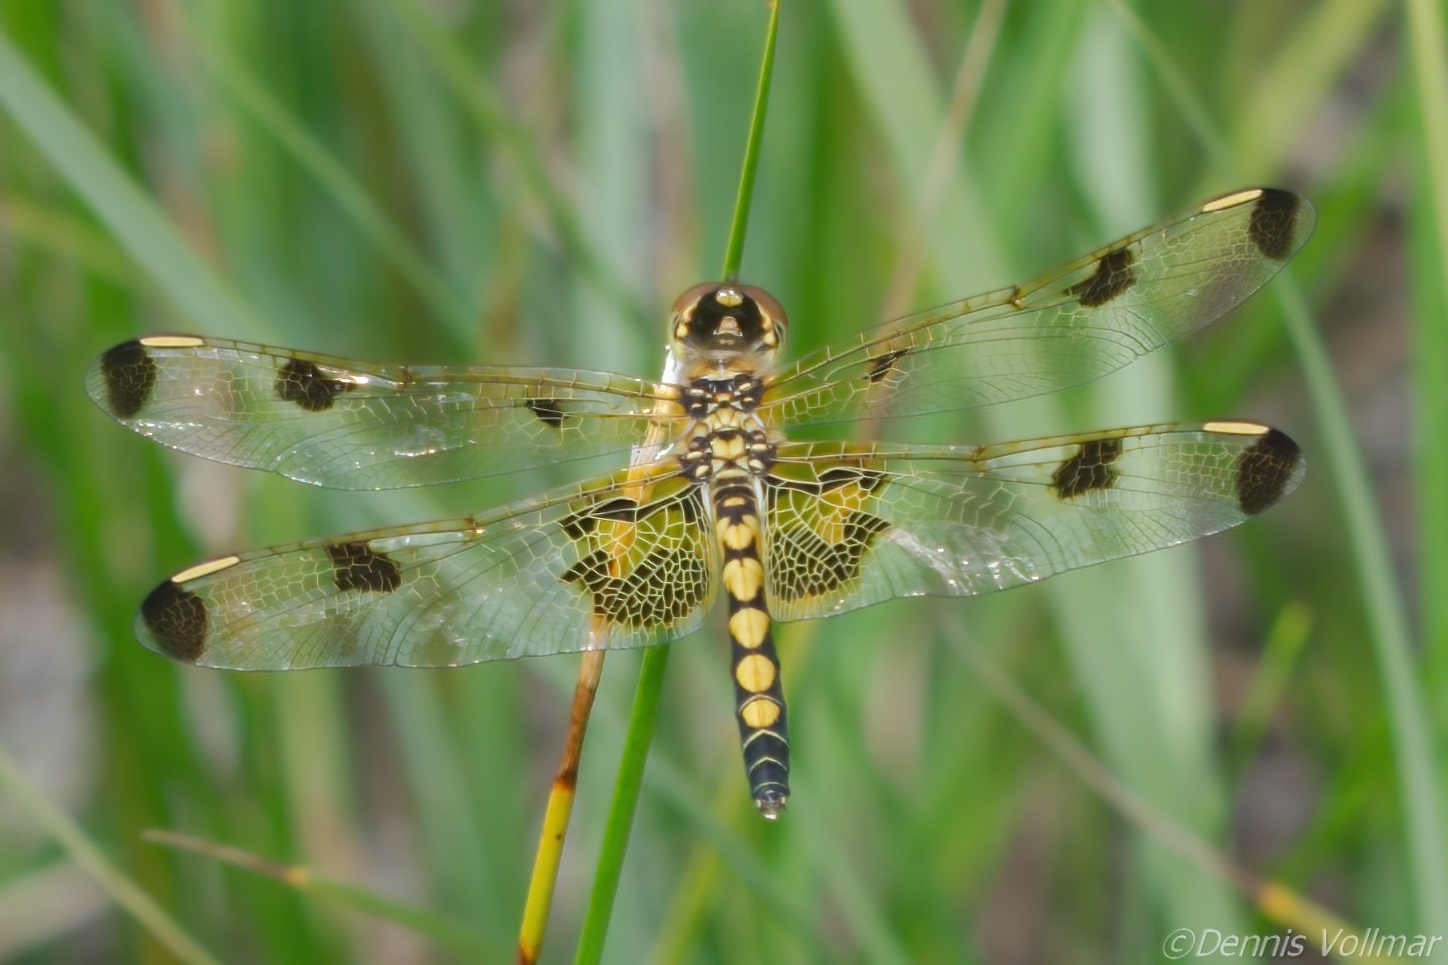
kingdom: Animalia
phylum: Arthropoda
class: Insecta
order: Odonata
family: Libellulidae
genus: Celithemis
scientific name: Celithemis elisa
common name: Calico pennant
